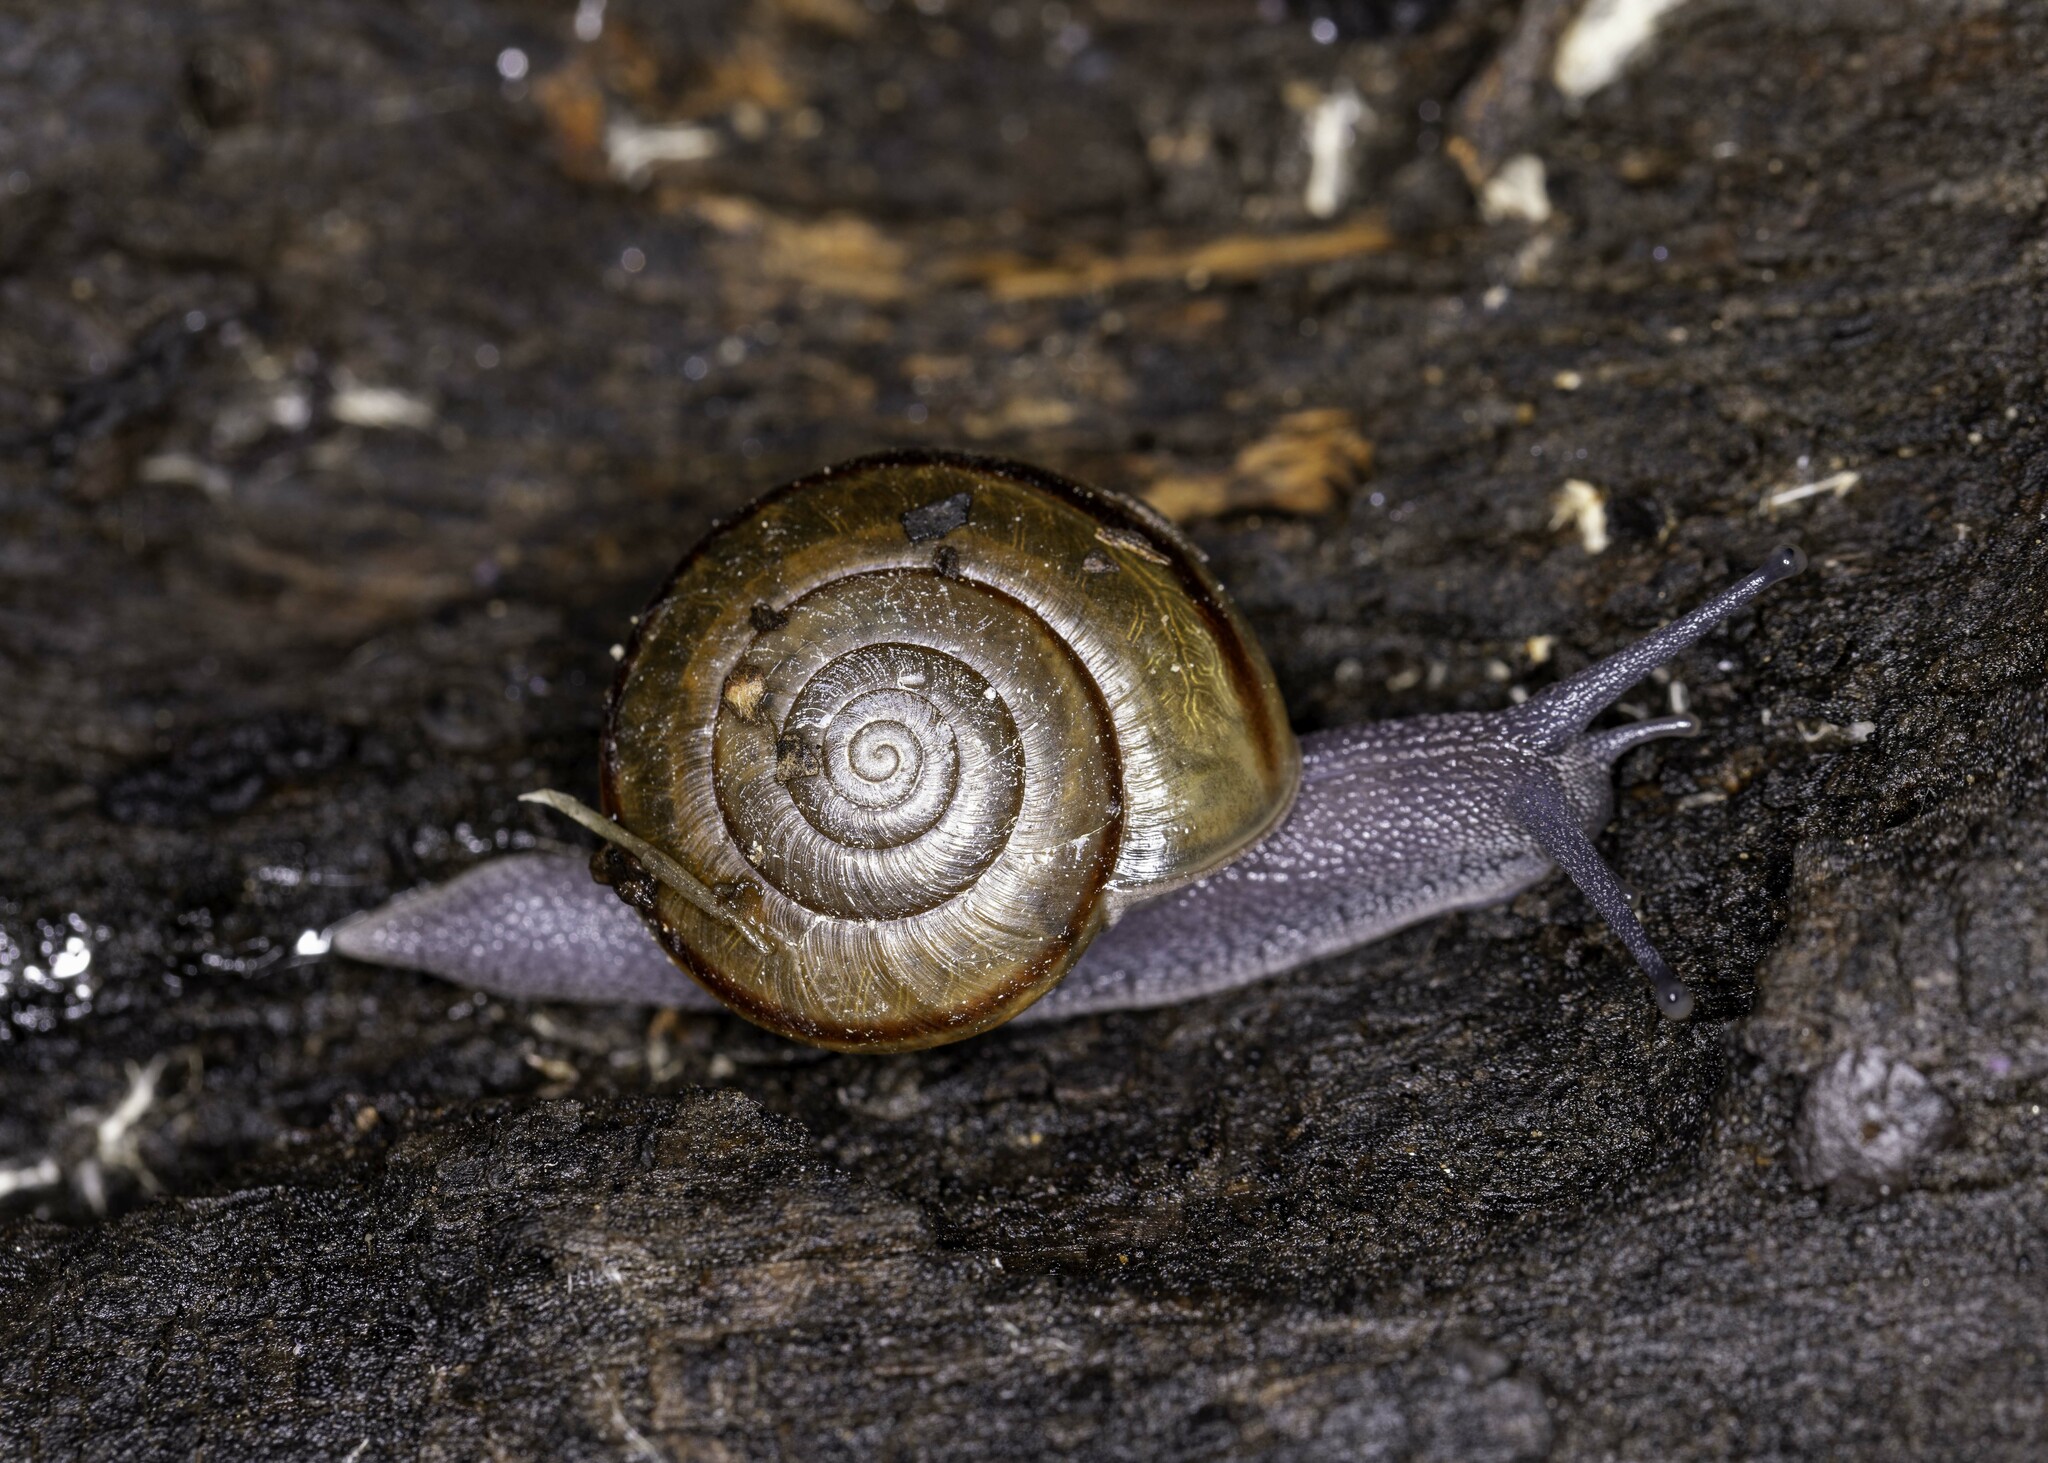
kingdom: Animalia
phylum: Mollusca
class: Gastropoda
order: Stylommatophora
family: Xanthonychidae
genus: Helminthoglypta
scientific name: Helminthoglypta traskii
